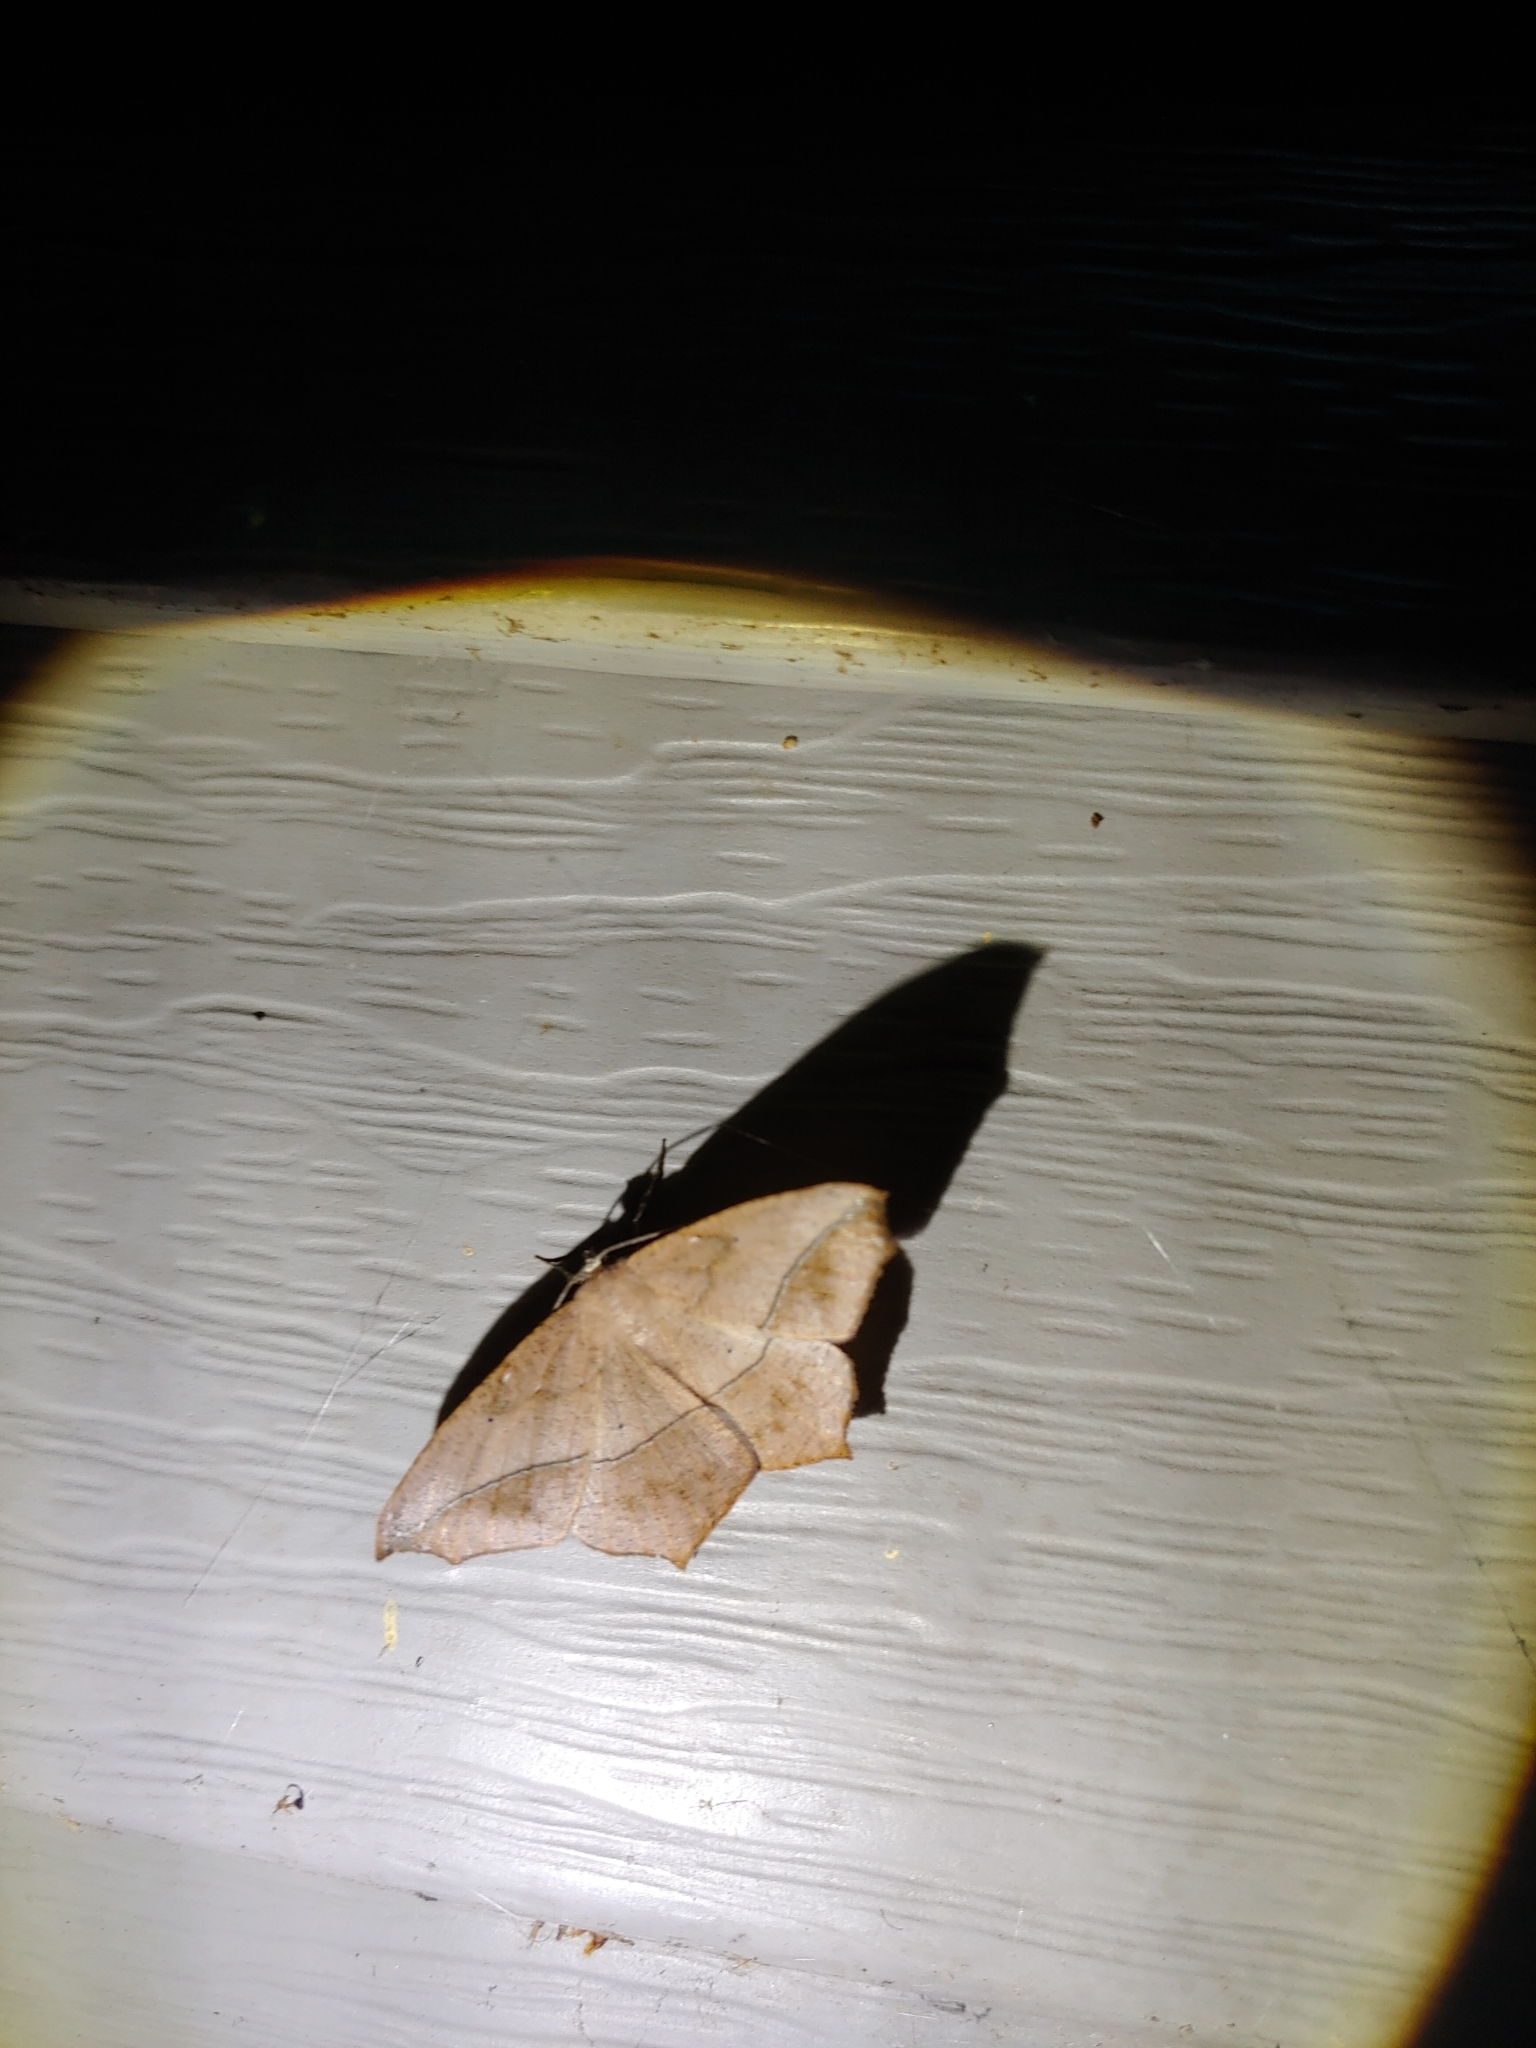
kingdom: Animalia
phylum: Arthropoda
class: Insecta
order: Lepidoptera
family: Geometridae
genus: Prochoerodes
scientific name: Prochoerodes lineola
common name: Large maple spanworm
